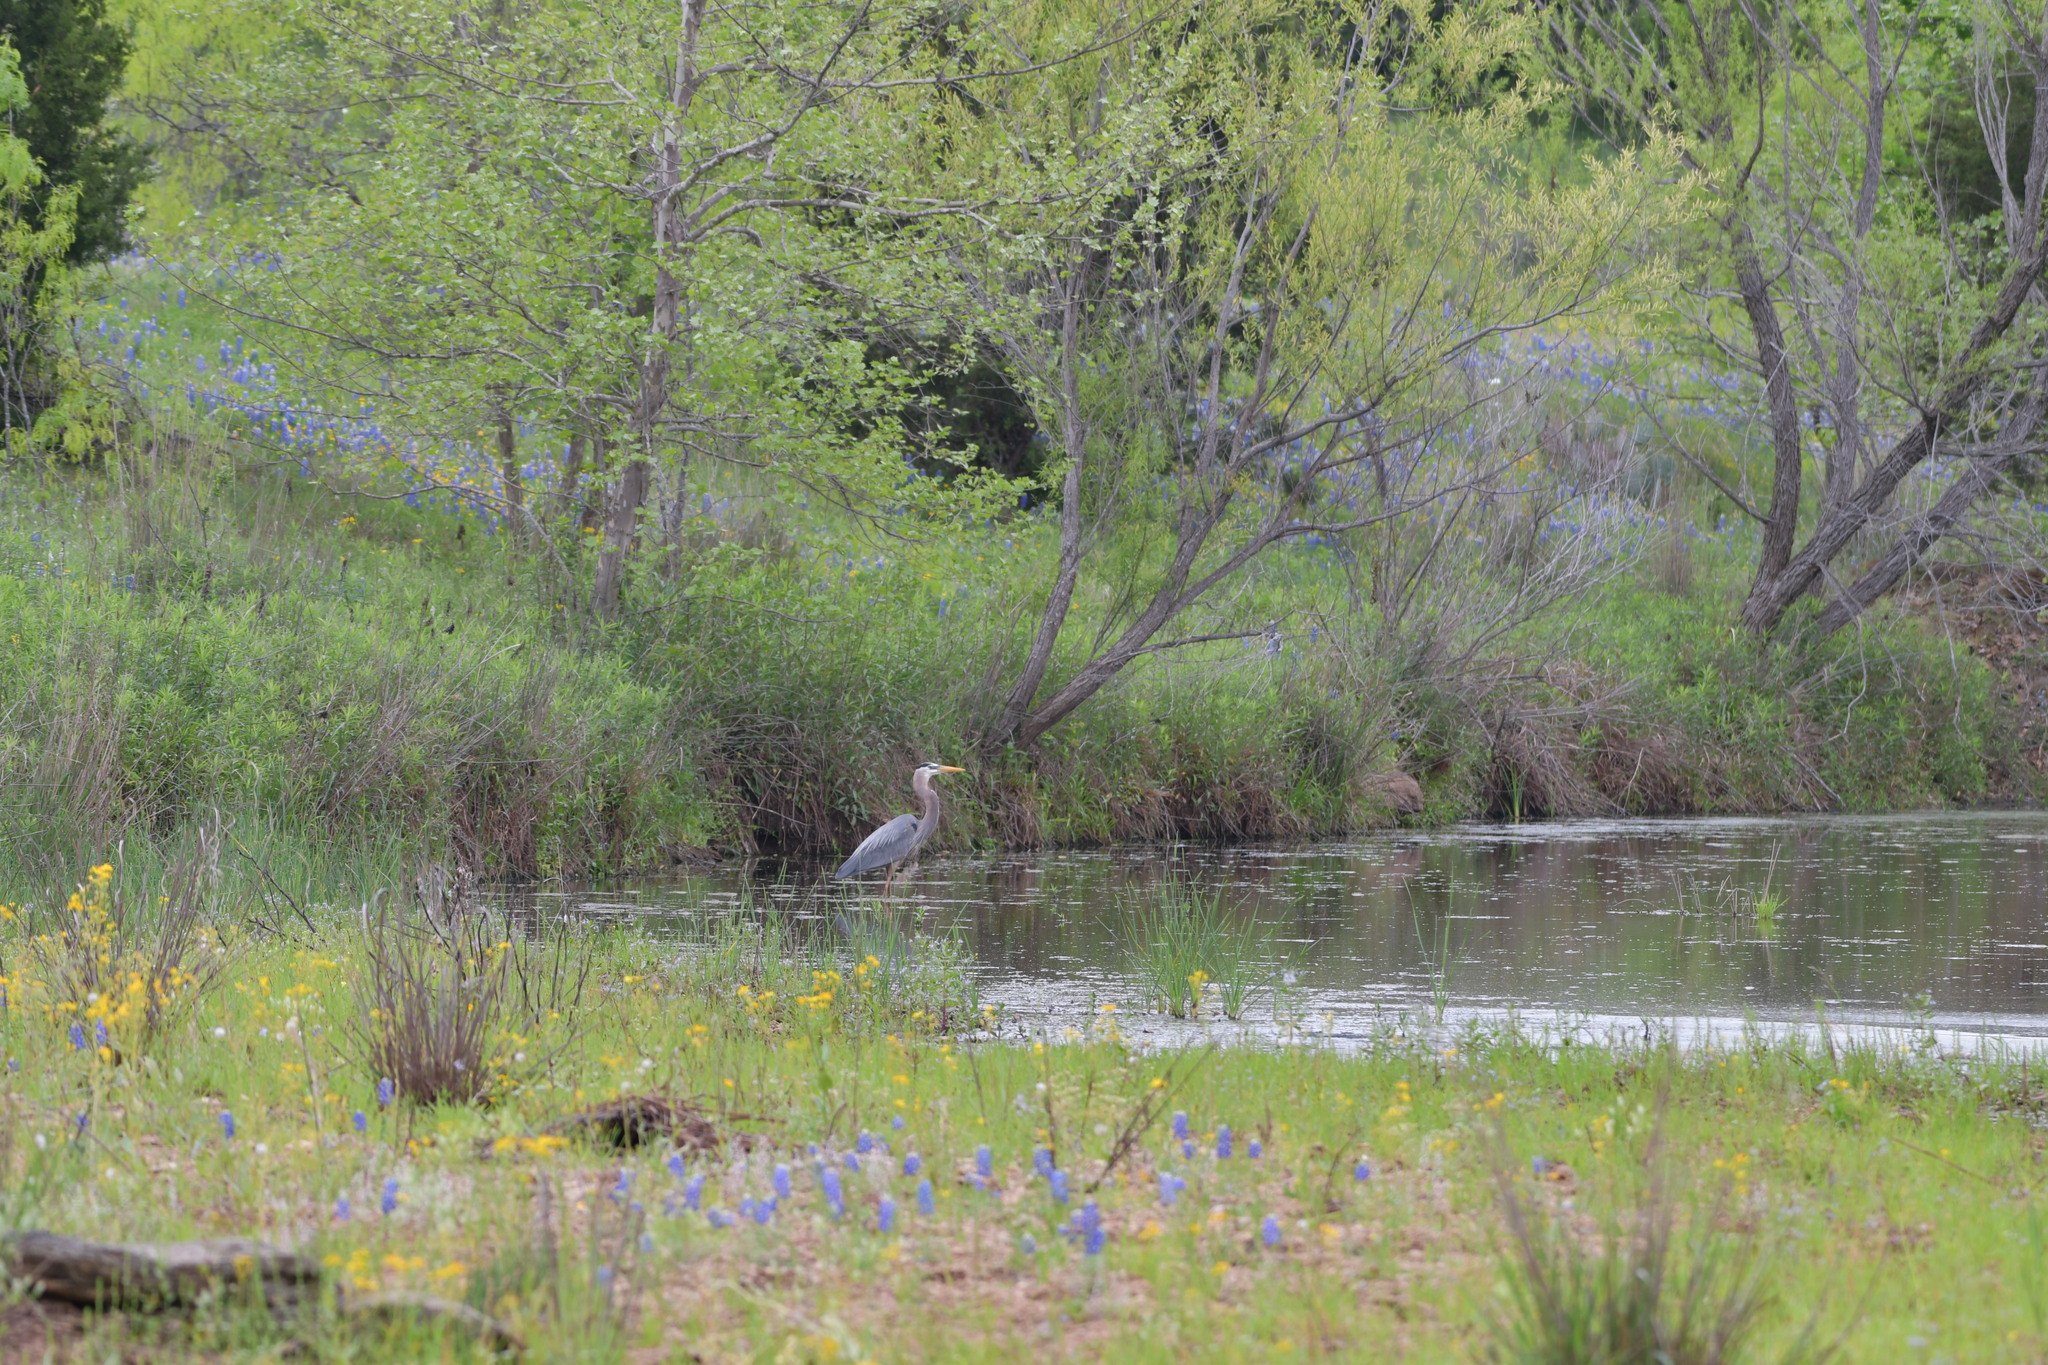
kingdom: Animalia
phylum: Chordata
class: Aves
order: Pelecaniformes
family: Ardeidae
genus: Ardea
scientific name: Ardea herodias
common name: Great blue heron
